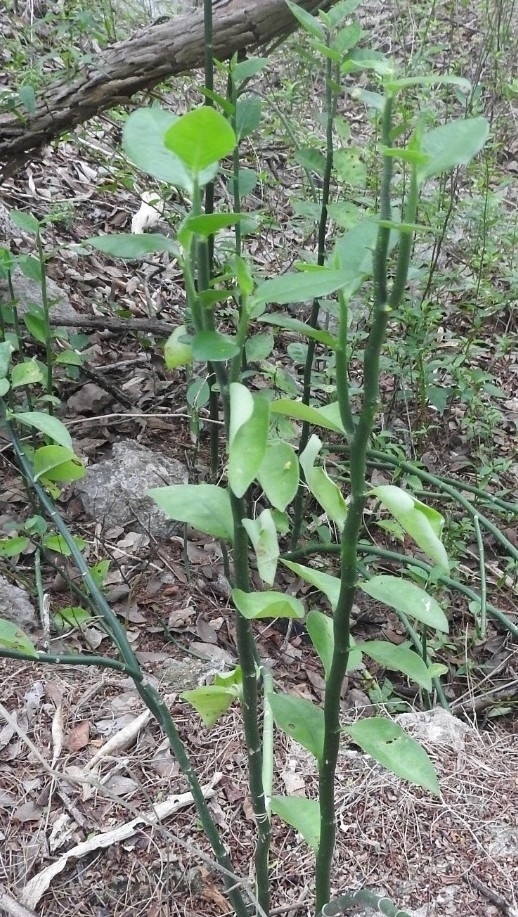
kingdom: Plantae
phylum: Tracheophyta
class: Magnoliopsida
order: Malpighiales
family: Euphorbiaceae
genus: Euphorbia
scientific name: Euphorbia tithymaloides
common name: Slipperplant
